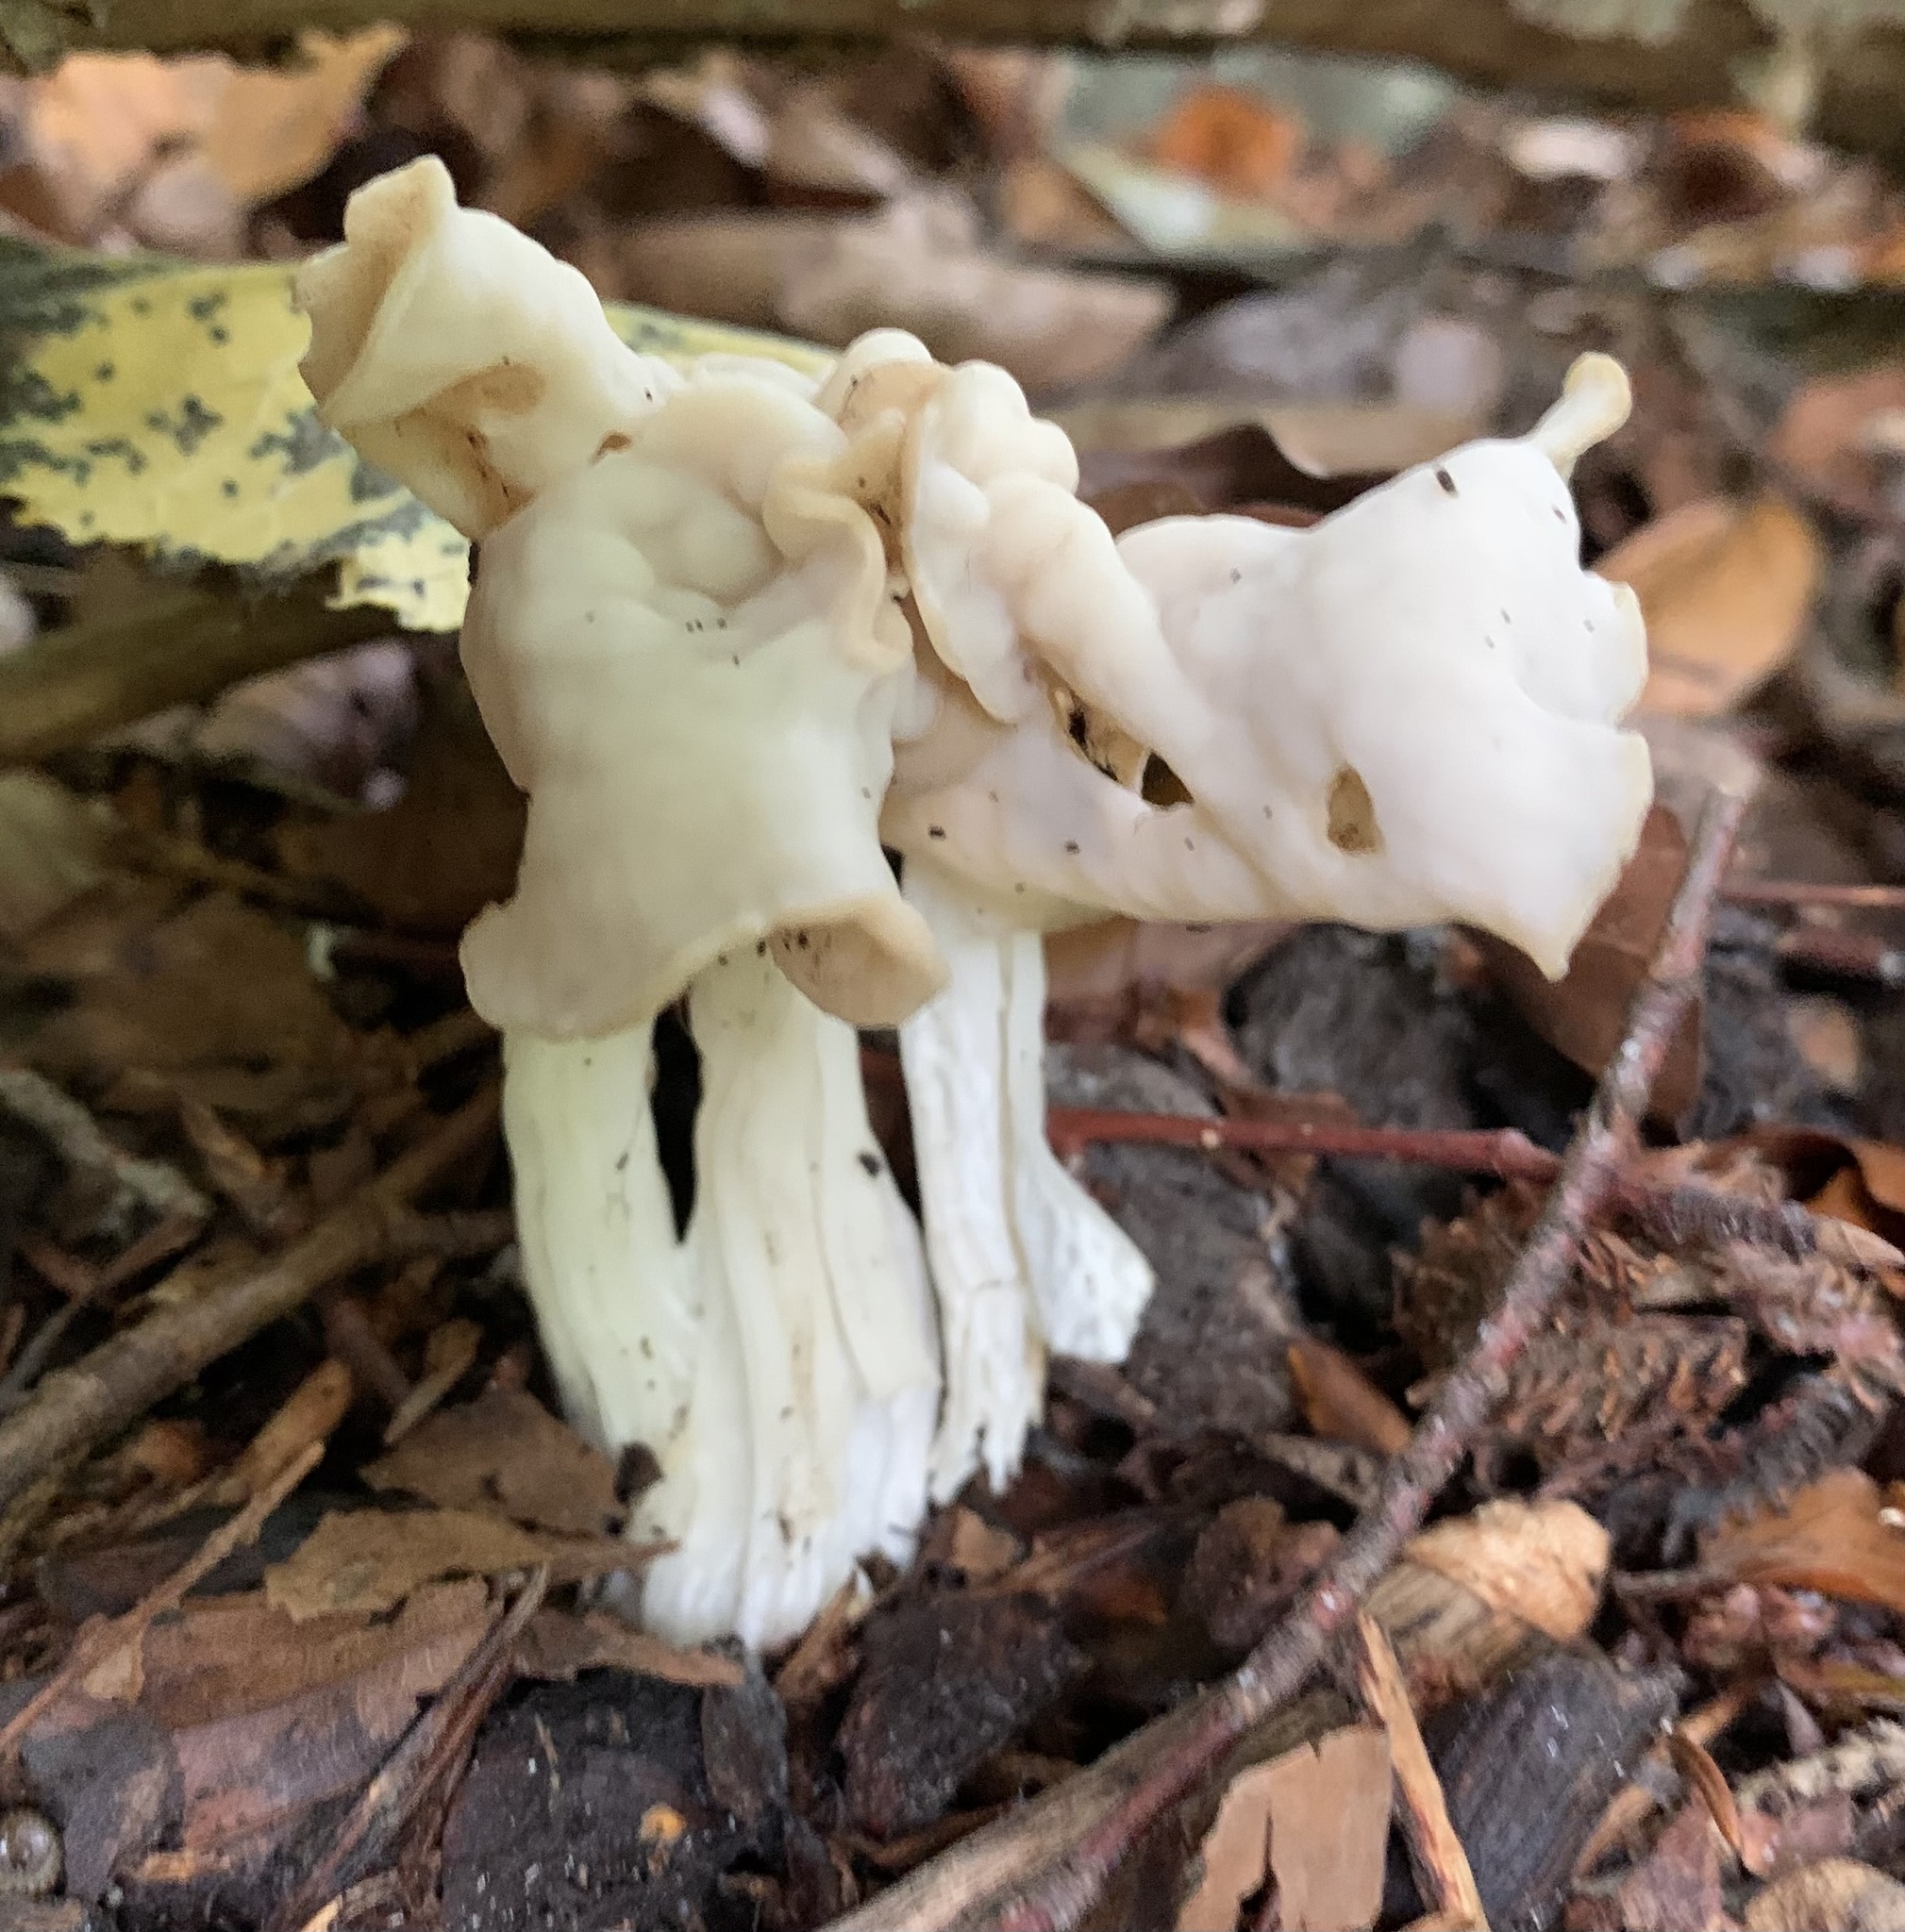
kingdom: Fungi
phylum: Ascomycota
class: Pezizomycetes
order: Pezizales
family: Helvellaceae
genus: Helvella
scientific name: Helvella crispa
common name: White saddle
